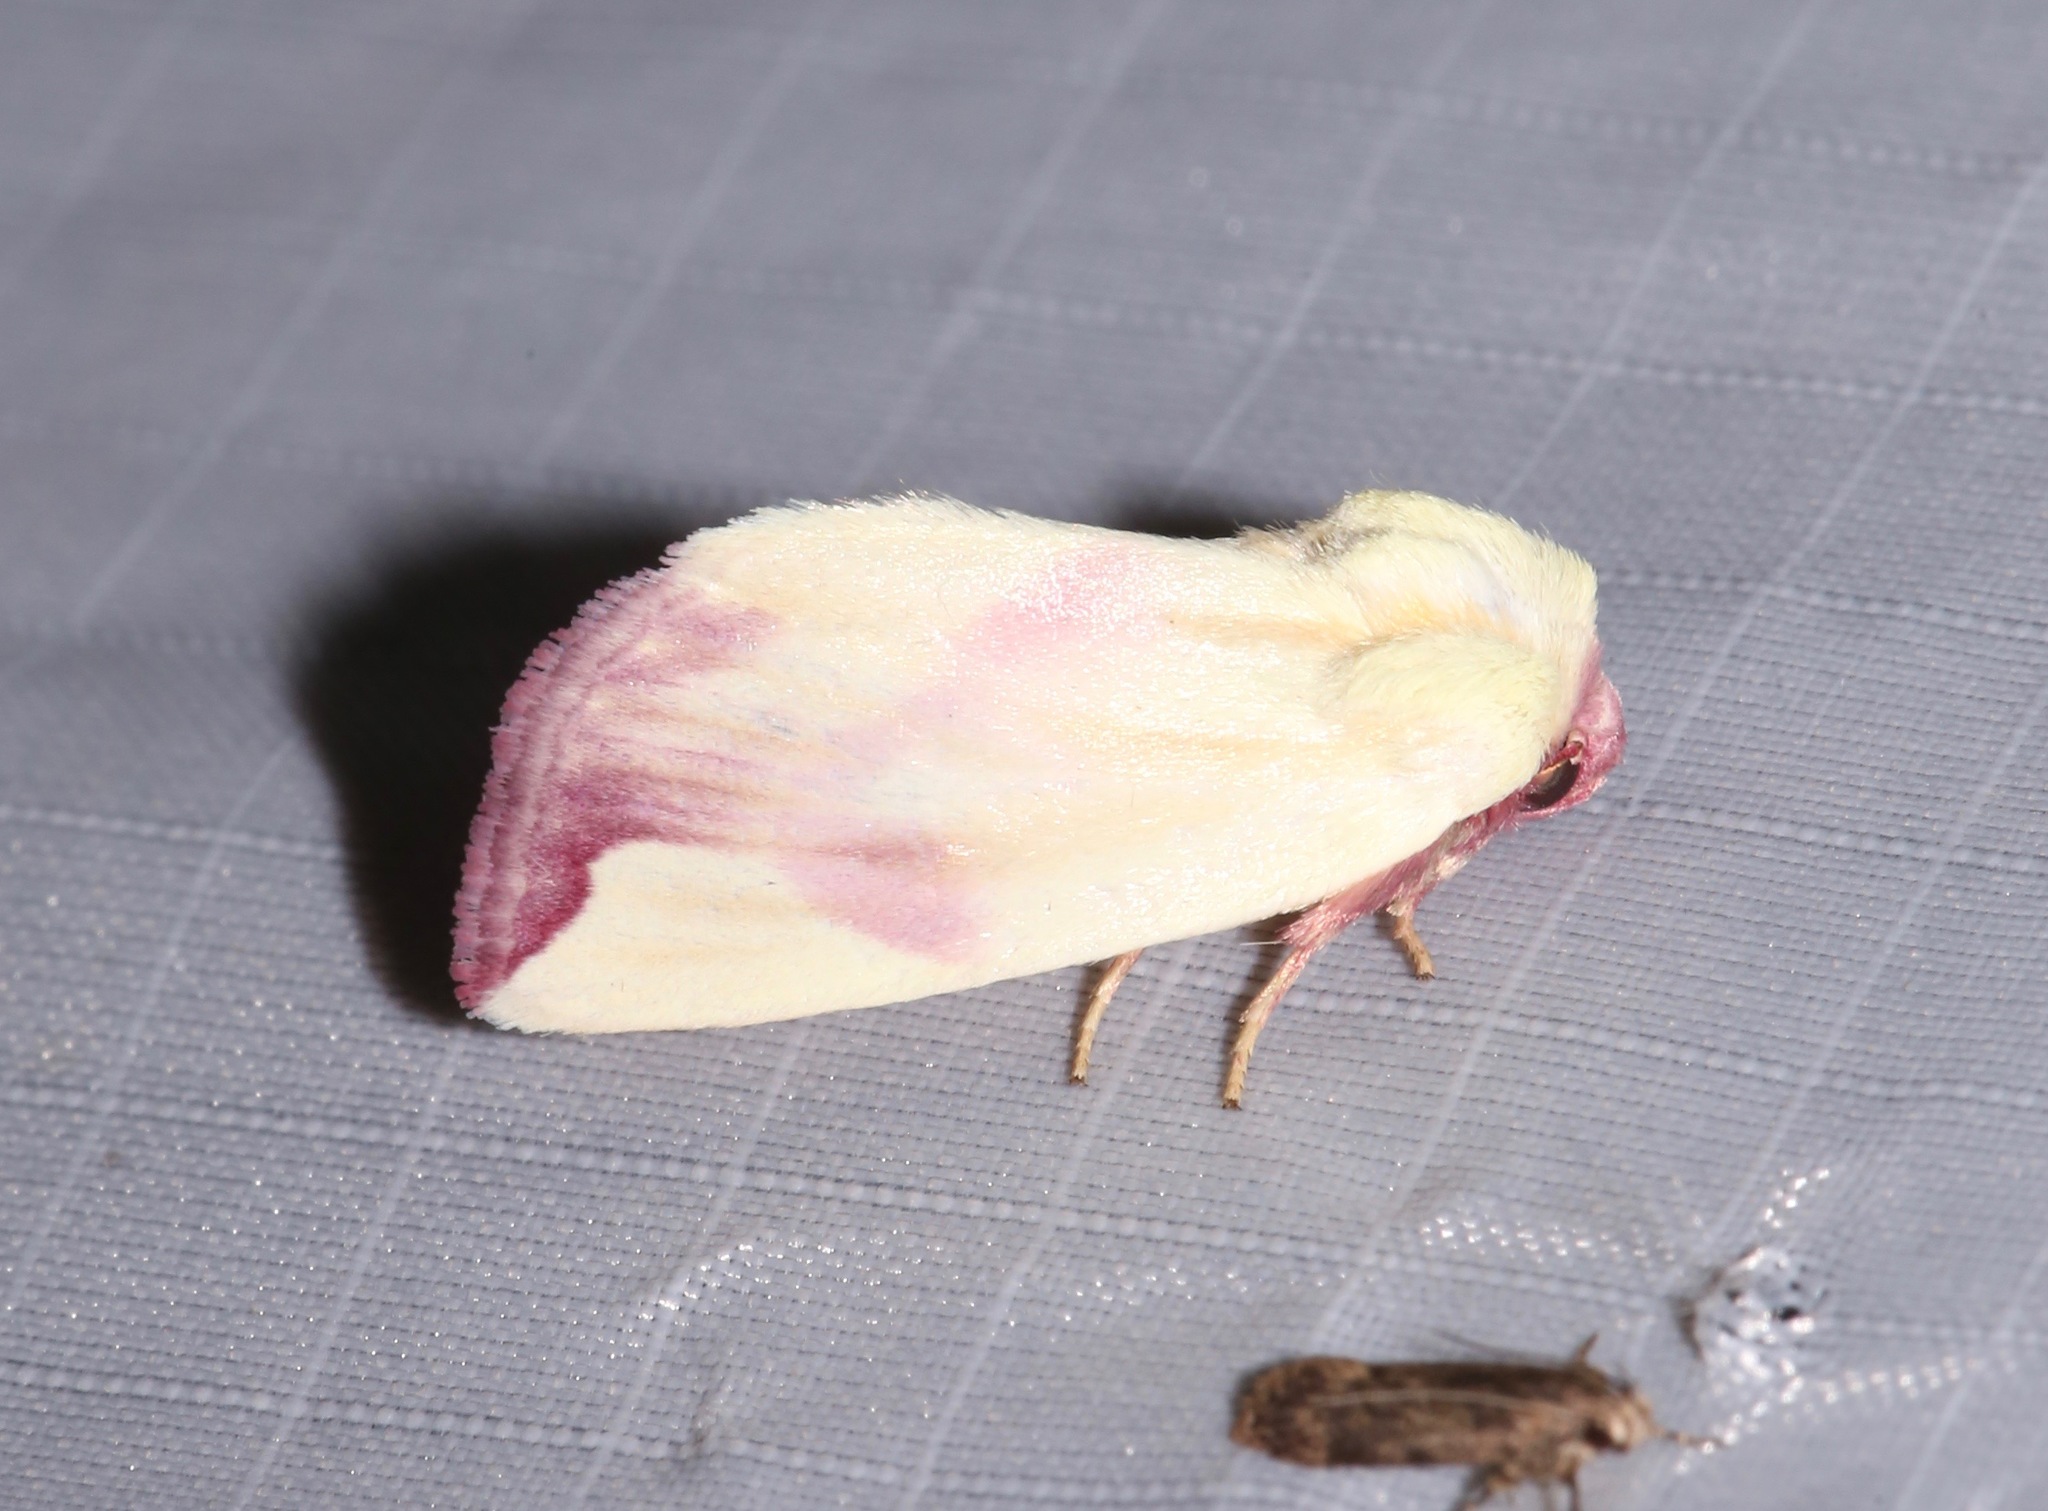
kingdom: Animalia
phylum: Arthropoda
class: Insecta
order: Lepidoptera
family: Noctuidae
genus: Thurberiphaga
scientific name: Thurberiphaga diffusa
